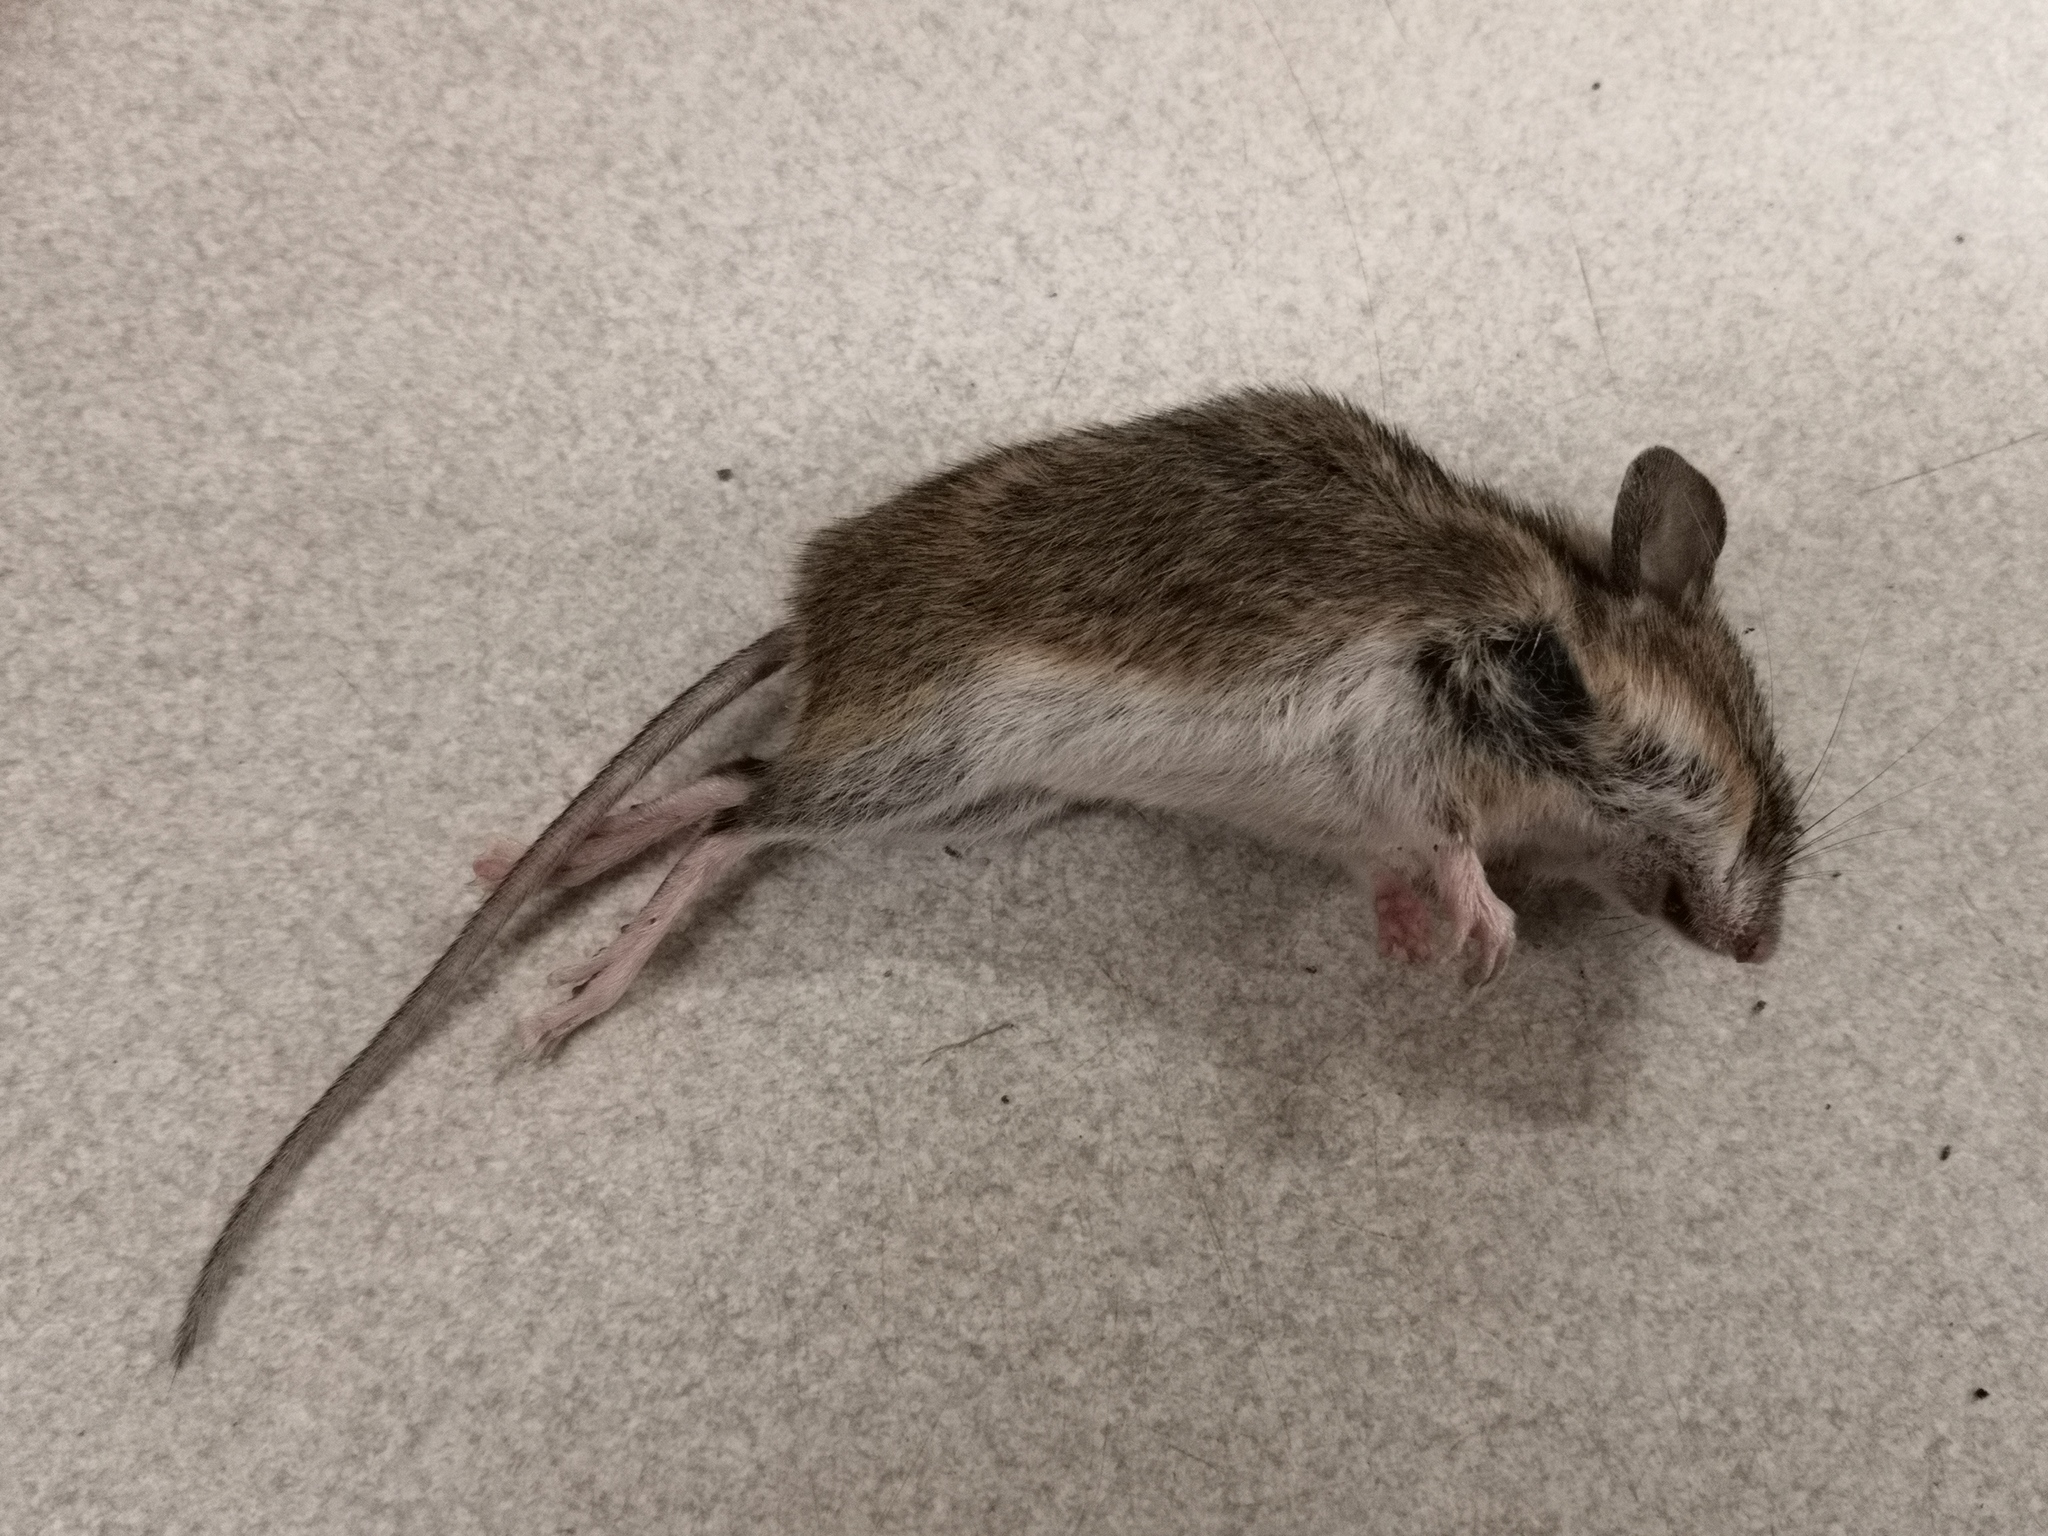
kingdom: Animalia
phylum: Chordata
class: Mammalia
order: Rodentia
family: Muridae
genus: Apodemus
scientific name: Apodemus sylvaticus
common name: Wood mouse
